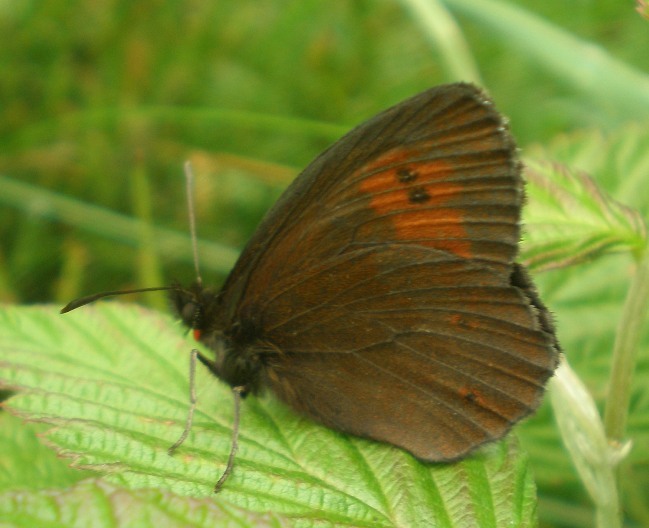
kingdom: Animalia
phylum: Arthropoda
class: Insecta
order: Lepidoptera
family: Nymphalidae
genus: Erebia
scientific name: Erebia euryale
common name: Large ringlet
